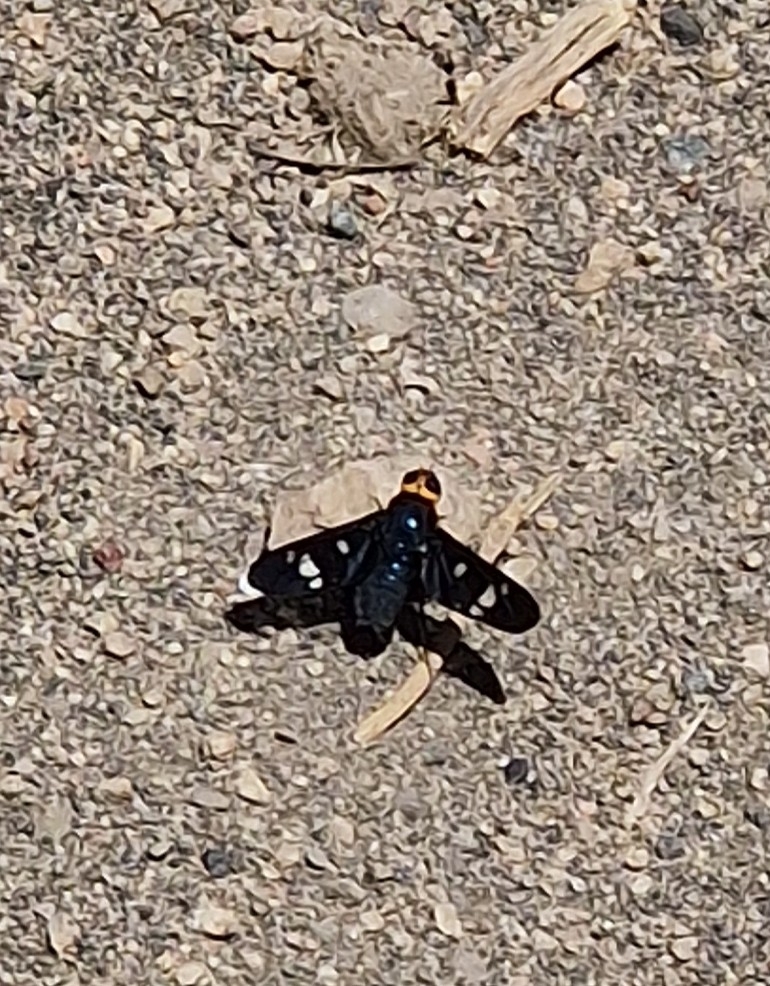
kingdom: Animalia
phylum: Arthropoda
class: Insecta
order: Diptera
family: Bombyliidae
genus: Hyperalonia
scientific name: Hyperalonia morio
